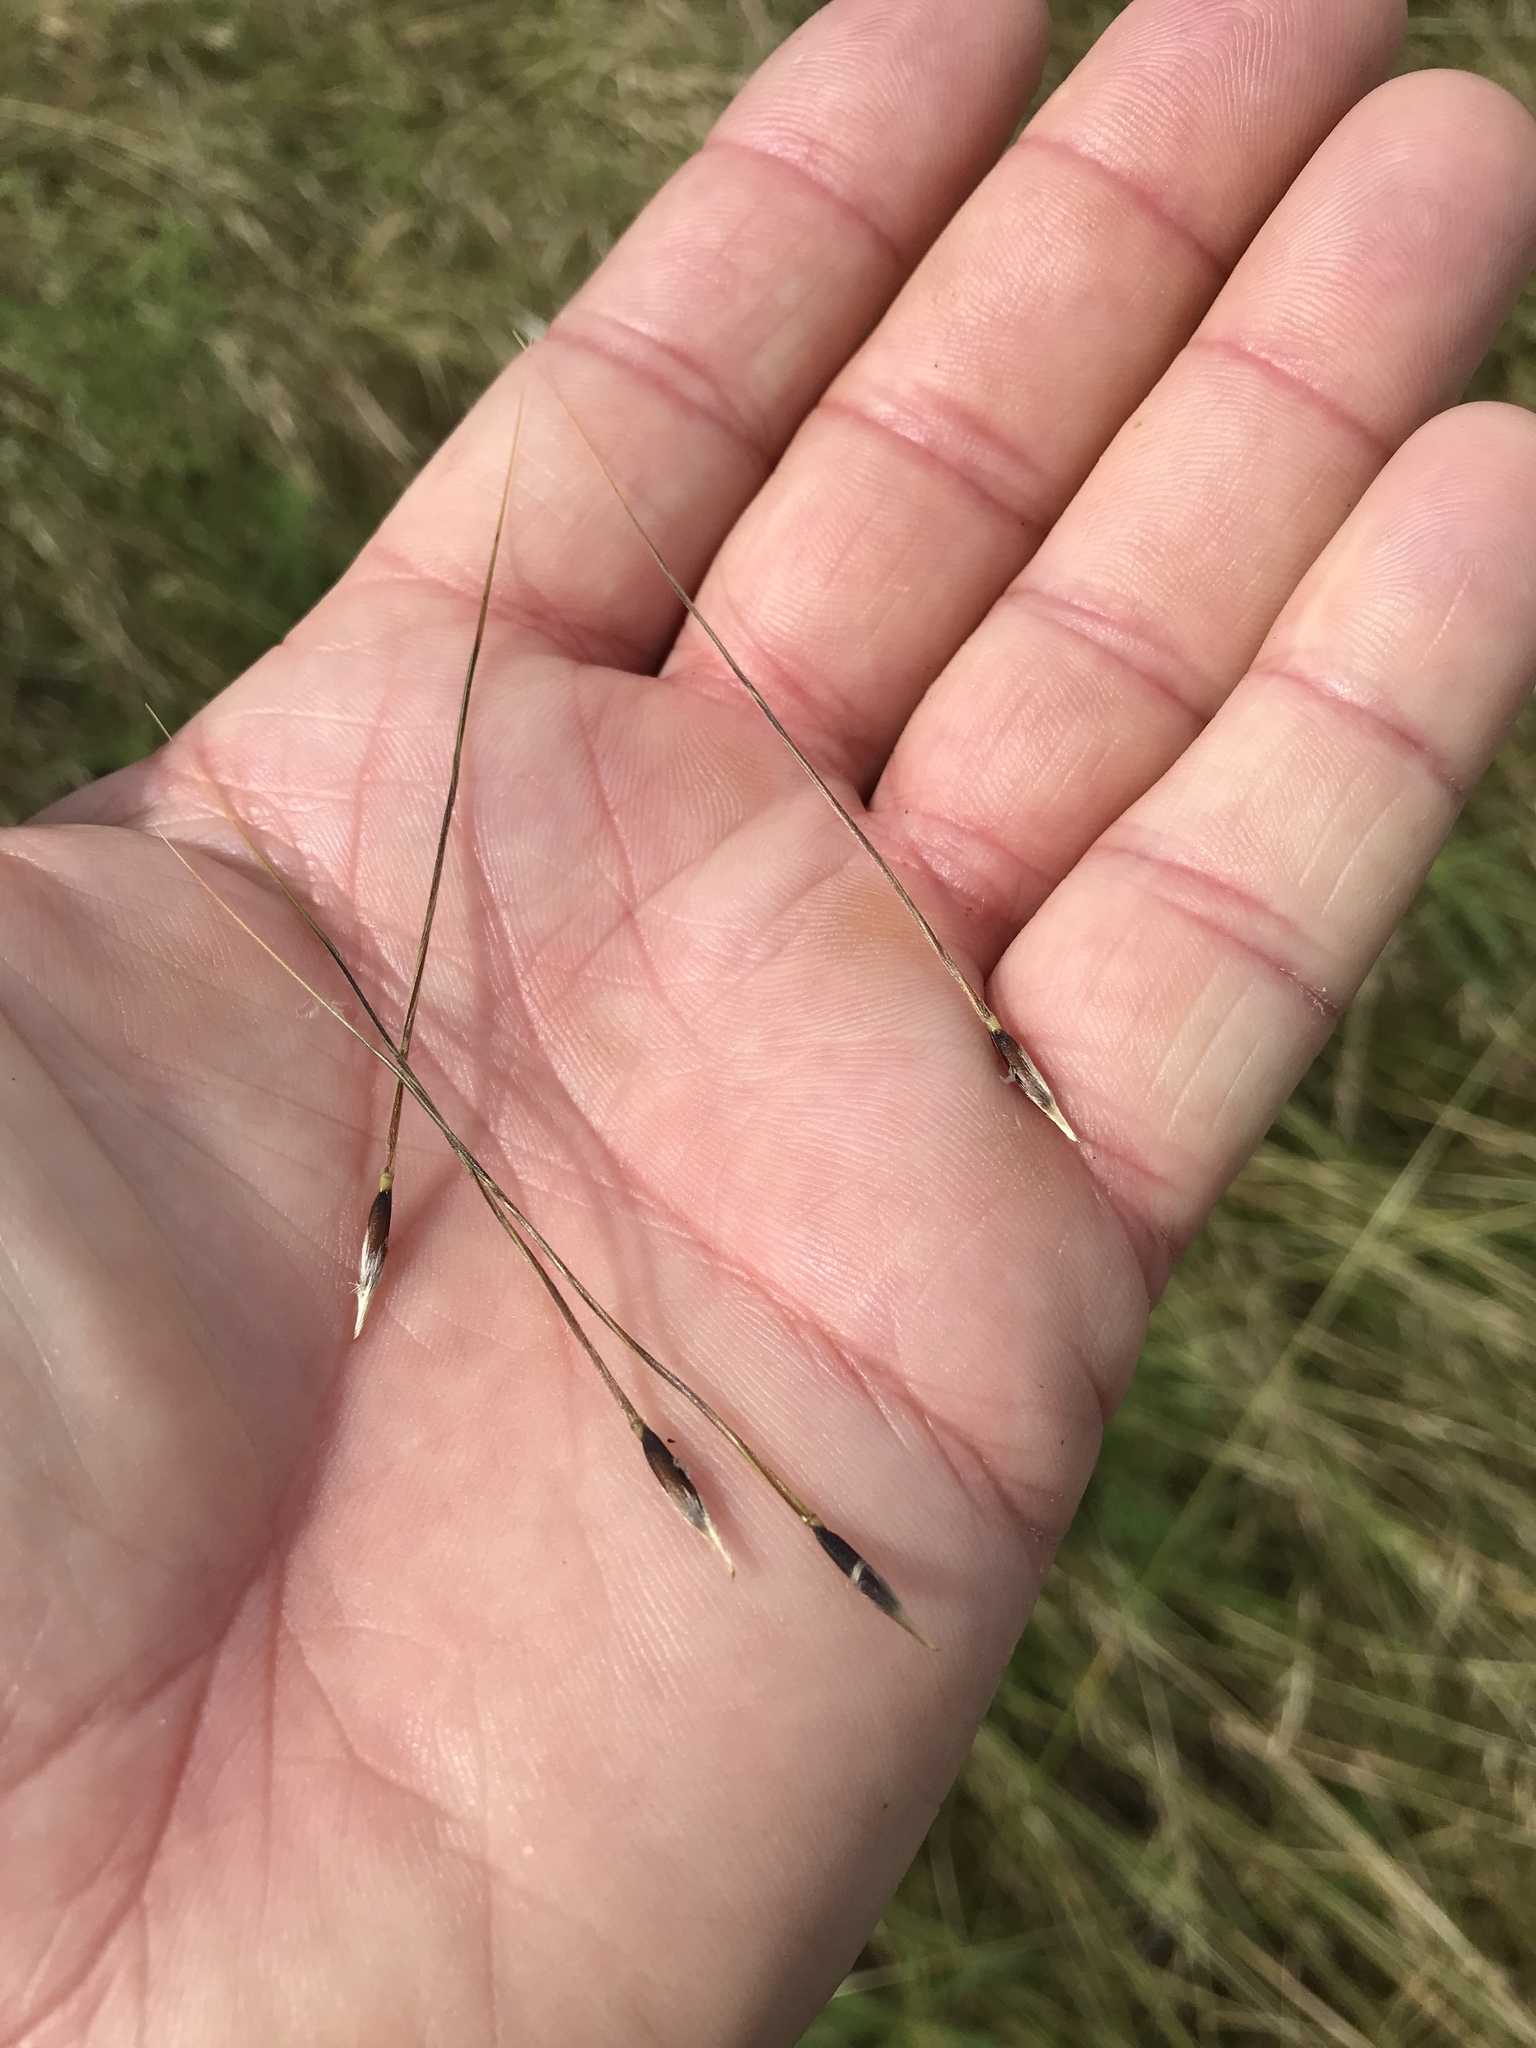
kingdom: Plantae
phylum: Tracheophyta
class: Liliopsida
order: Poales
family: Poaceae
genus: Nassella
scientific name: Nassella leucotricha
